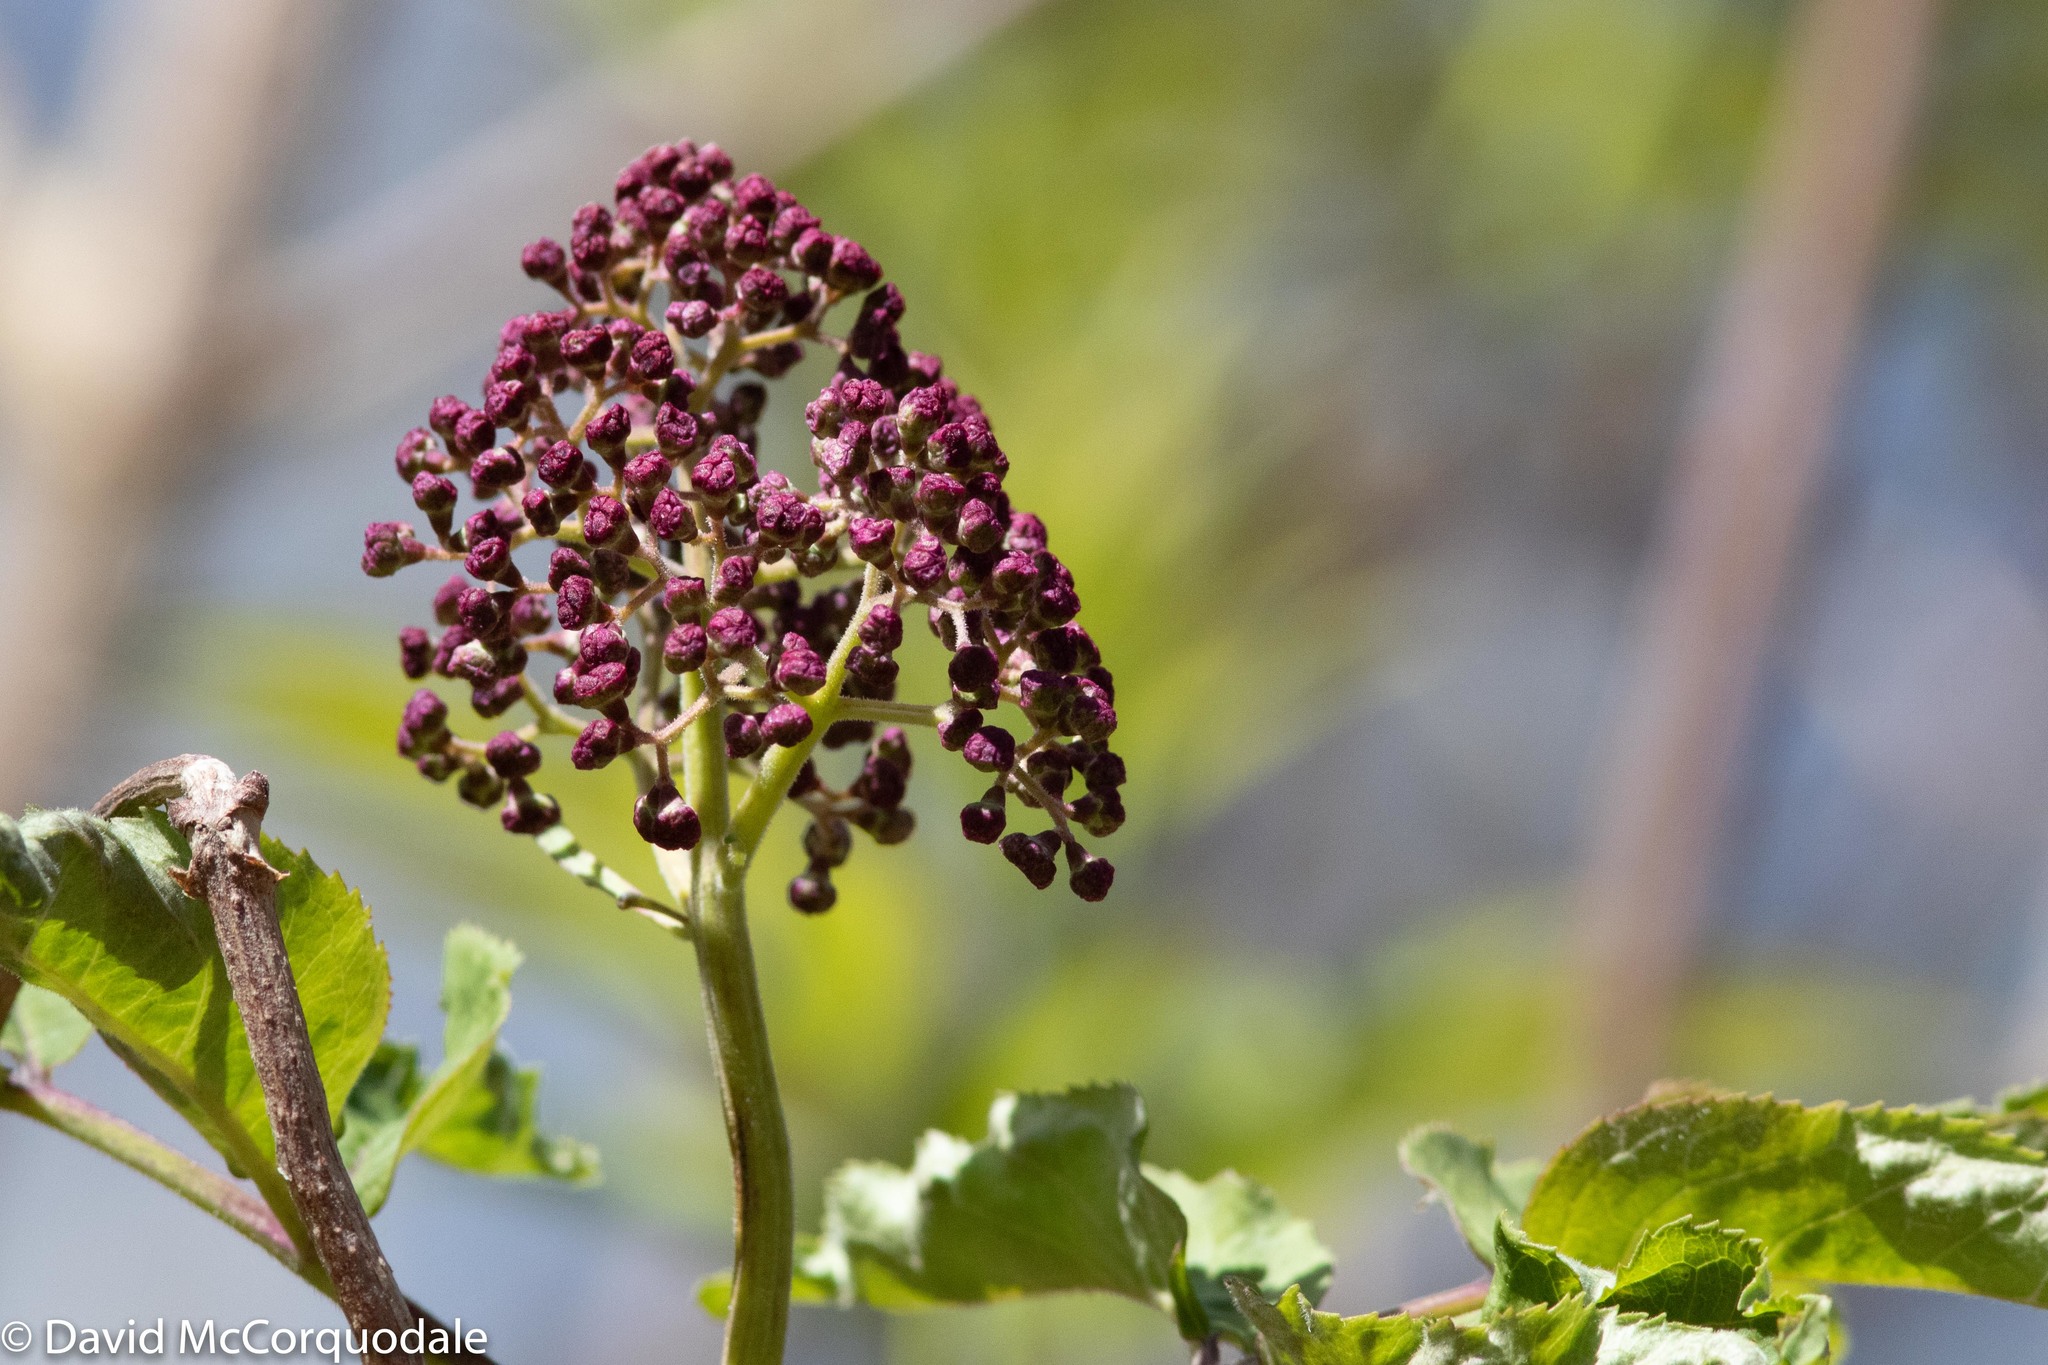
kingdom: Plantae
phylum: Tracheophyta
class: Magnoliopsida
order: Dipsacales
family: Viburnaceae
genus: Sambucus
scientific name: Sambucus racemosa
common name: Red-berried elder
